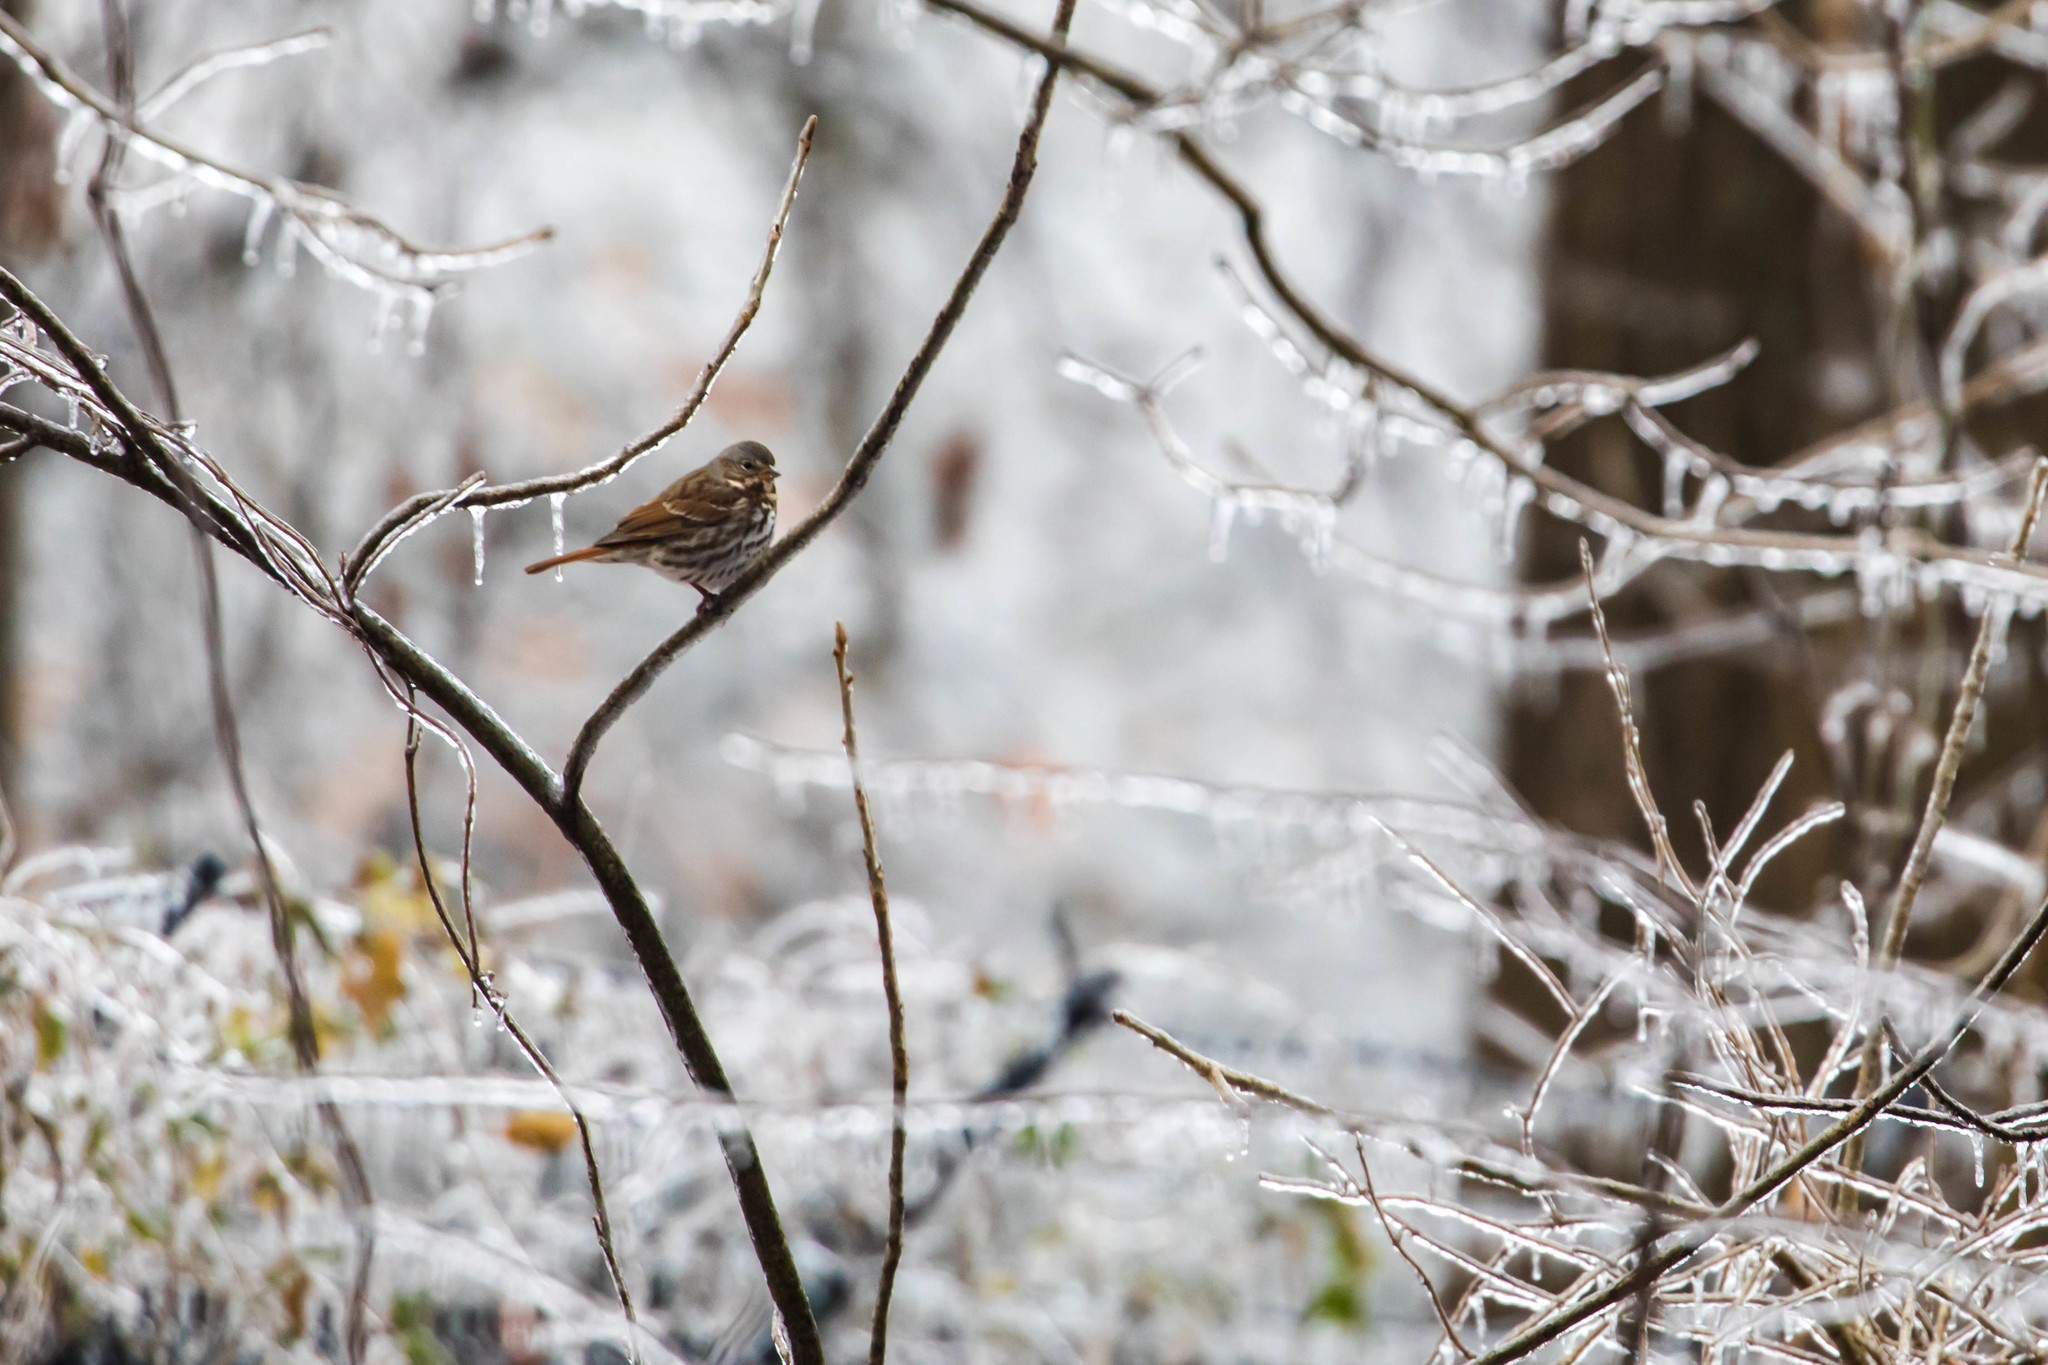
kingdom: Animalia
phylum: Chordata
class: Aves
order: Passeriformes
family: Passerellidae
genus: Passerella
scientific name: Passerella iliaca
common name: Fox sparrow
